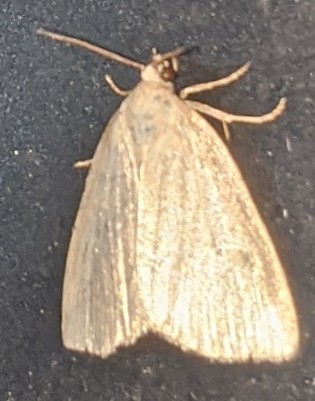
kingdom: Animalia
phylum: Arthropoda
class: Insecta
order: Lepidoptera
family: Noctuidae
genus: Protodeltote
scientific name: Protodeltote albidula
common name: Pale glyph
